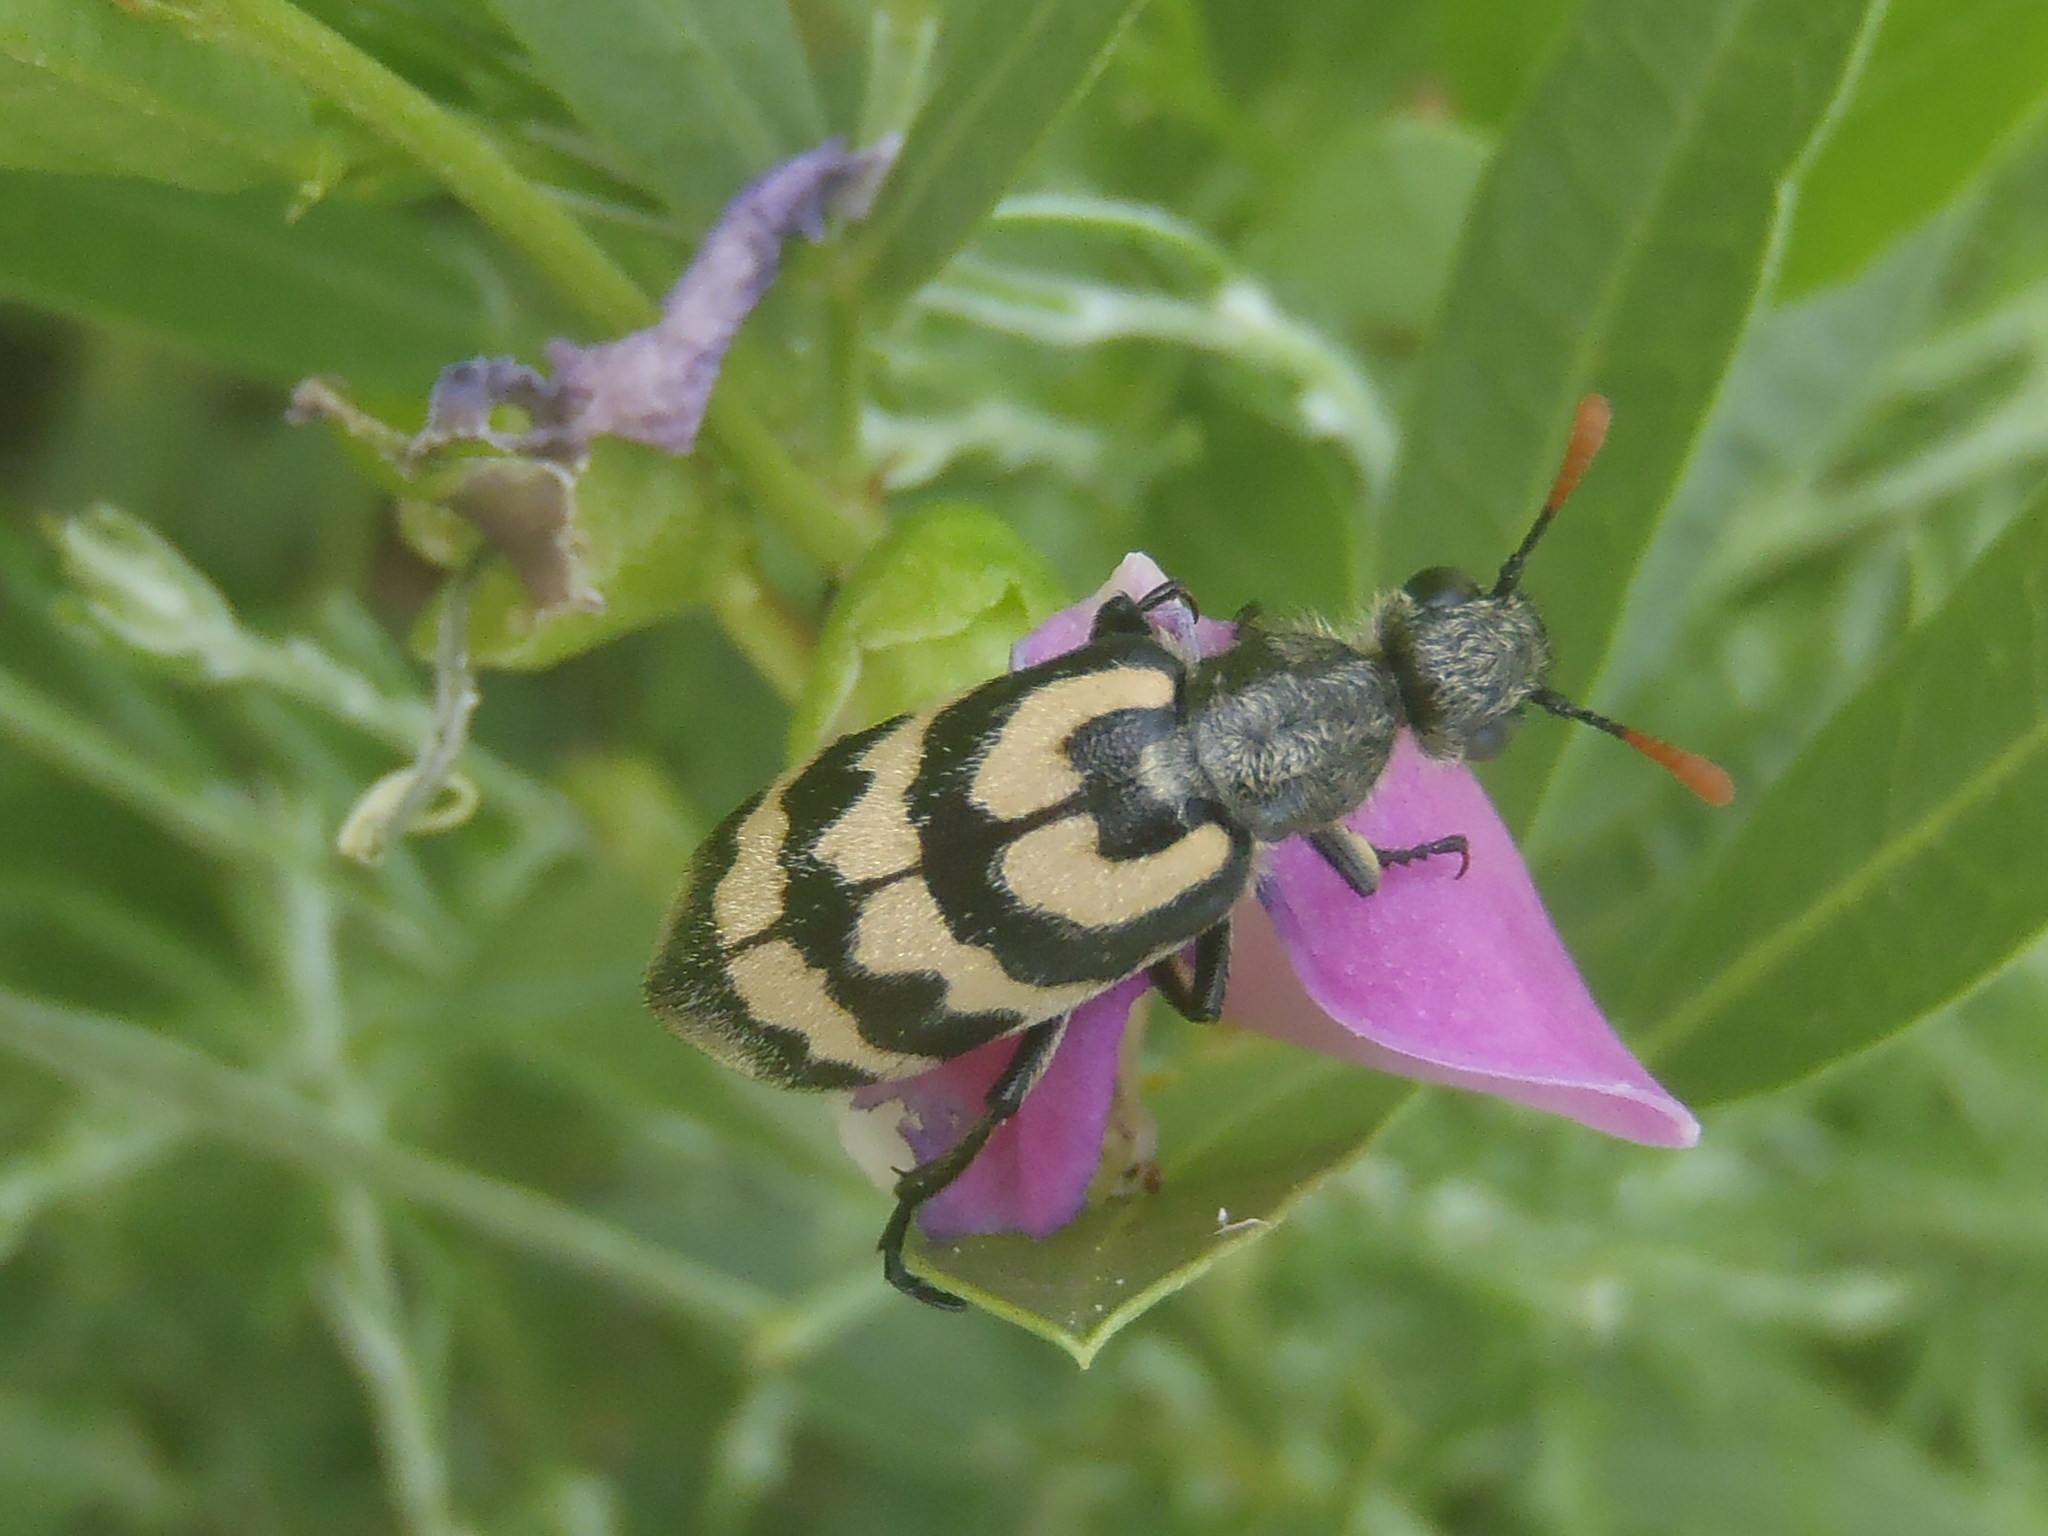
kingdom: Animalia
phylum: Arthropoda
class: Insecta
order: Coleoptera
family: Meloidae
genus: Meloe
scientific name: Meloe lunata
